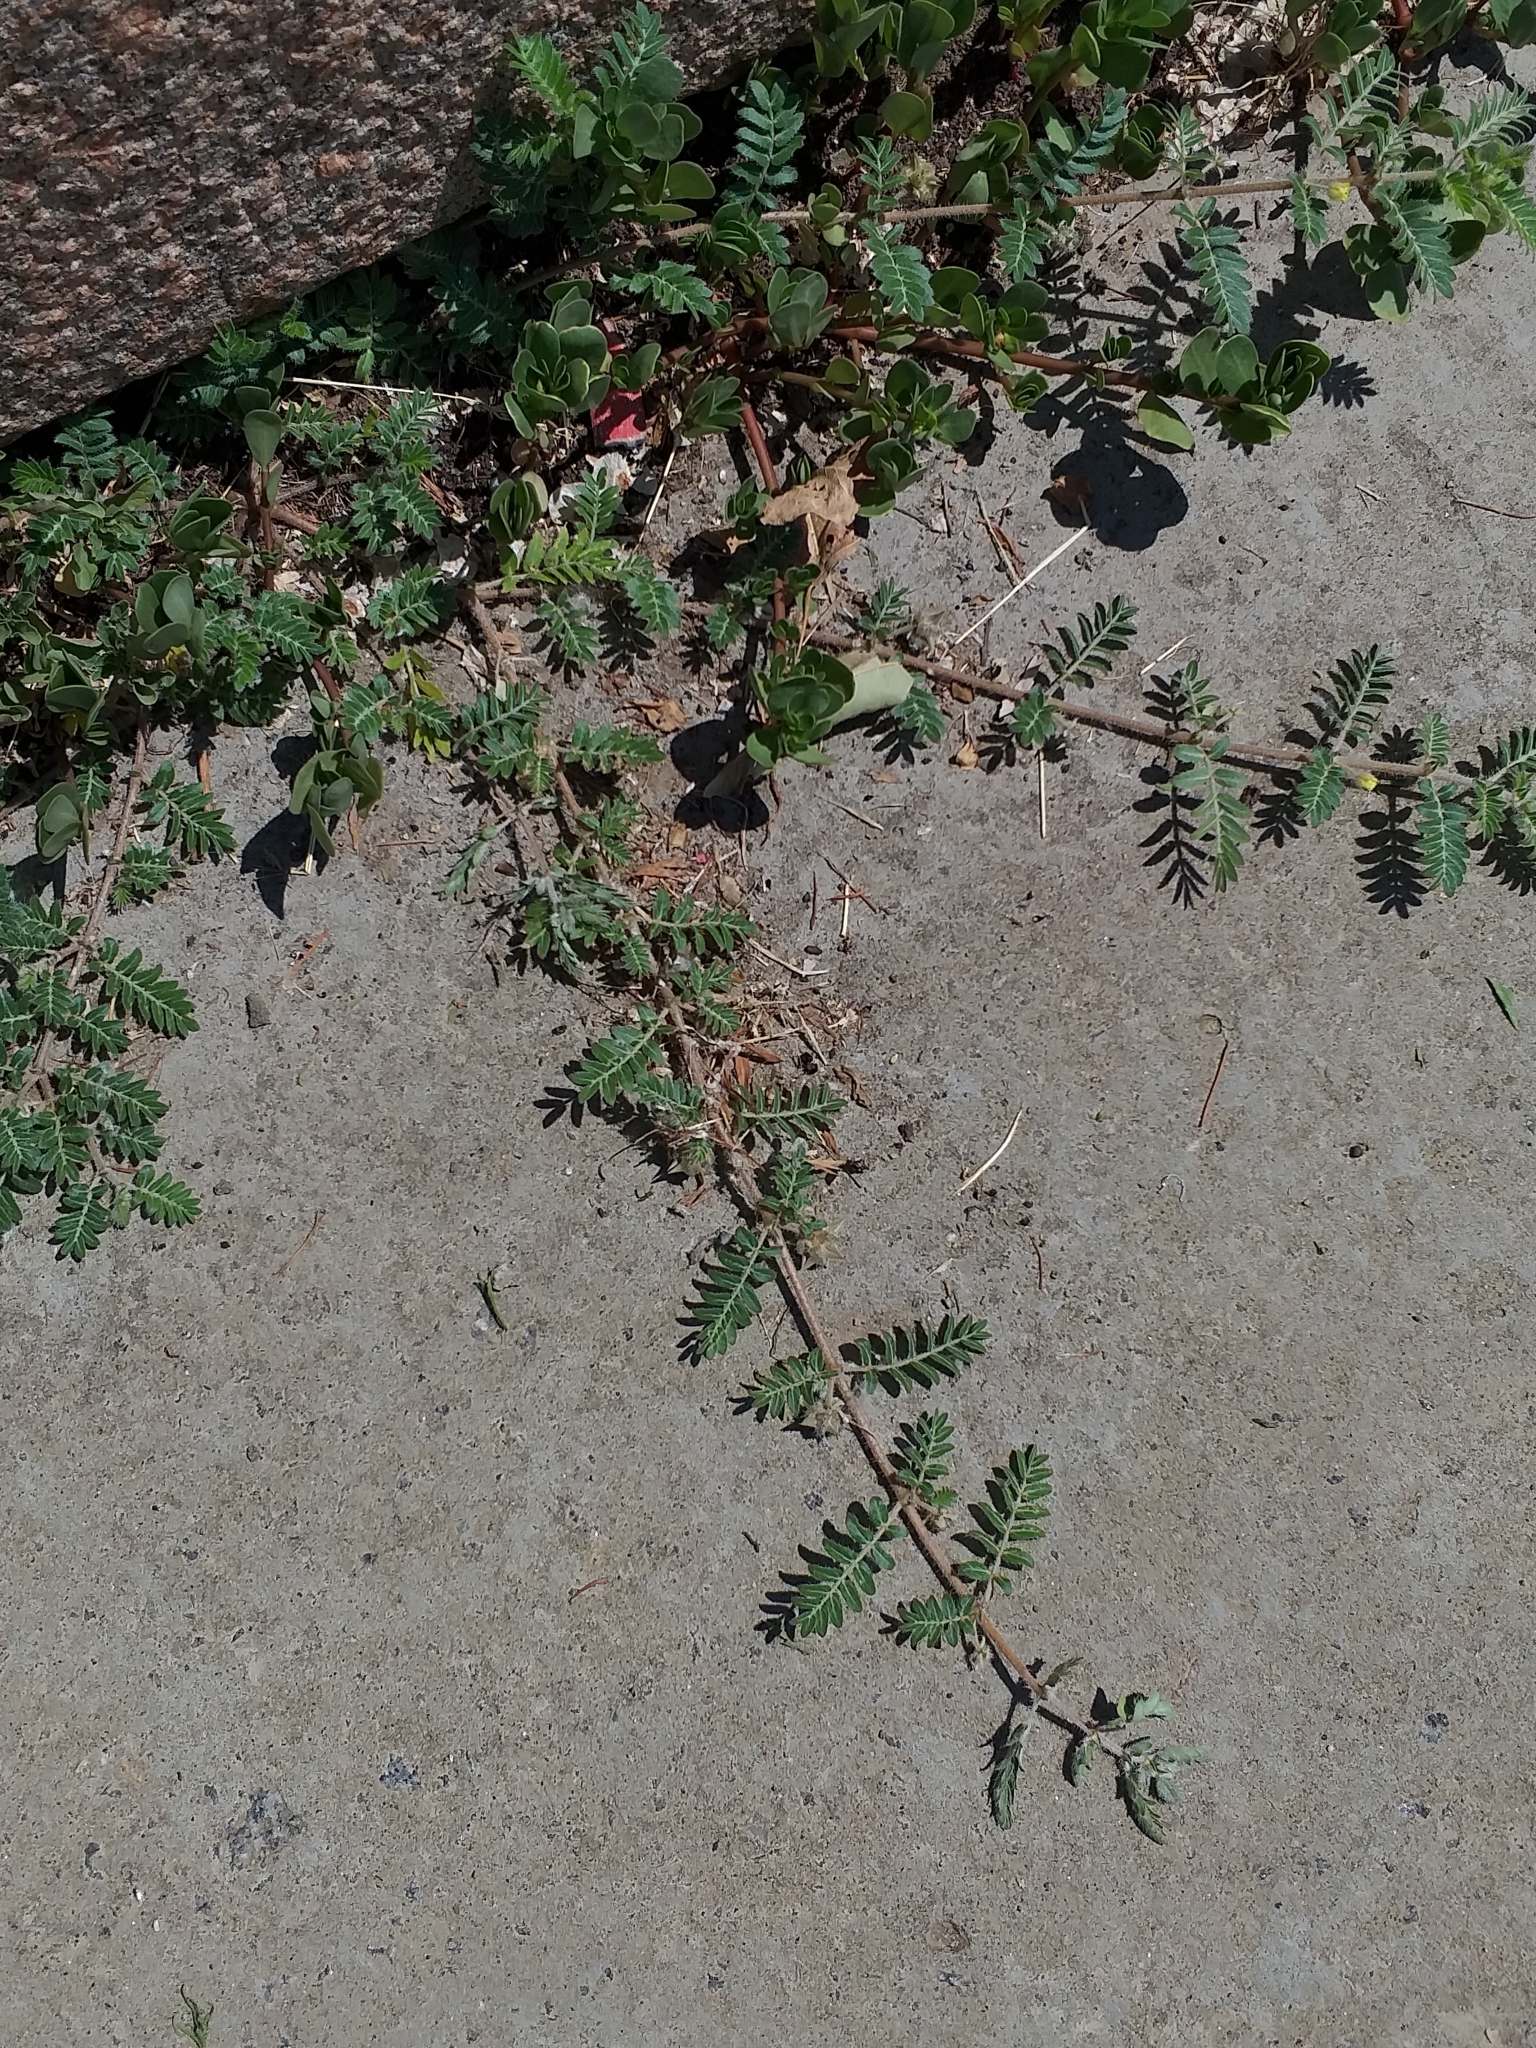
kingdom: Plantae
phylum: Tracheophyta
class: Magnoliopsida
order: Zygophyllales
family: Zygophyllaceae
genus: Tribulus
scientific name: Tribulus terrestris
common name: Puncturevine
